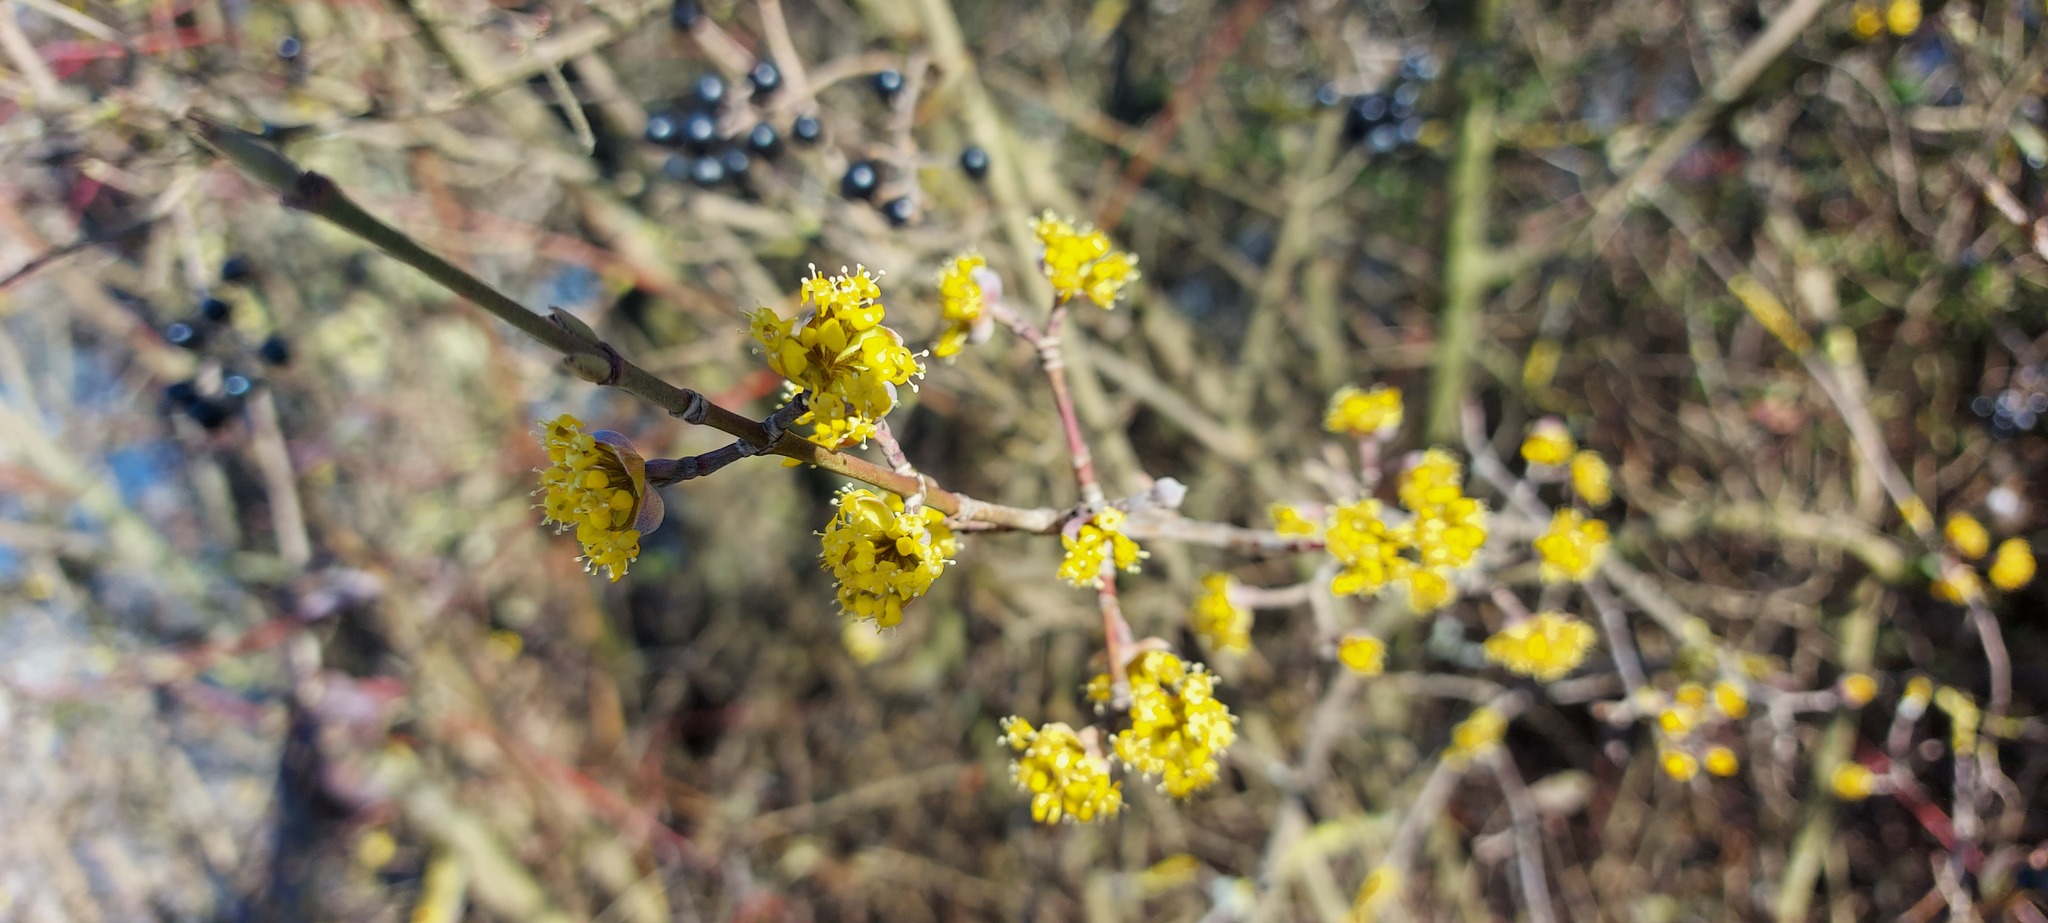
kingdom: Plantae
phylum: Tracheophyta
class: Magnoliopsida
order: Cornales
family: Cornaceae
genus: Cornus
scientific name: Cornus mas
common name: Cornelian-cherry
